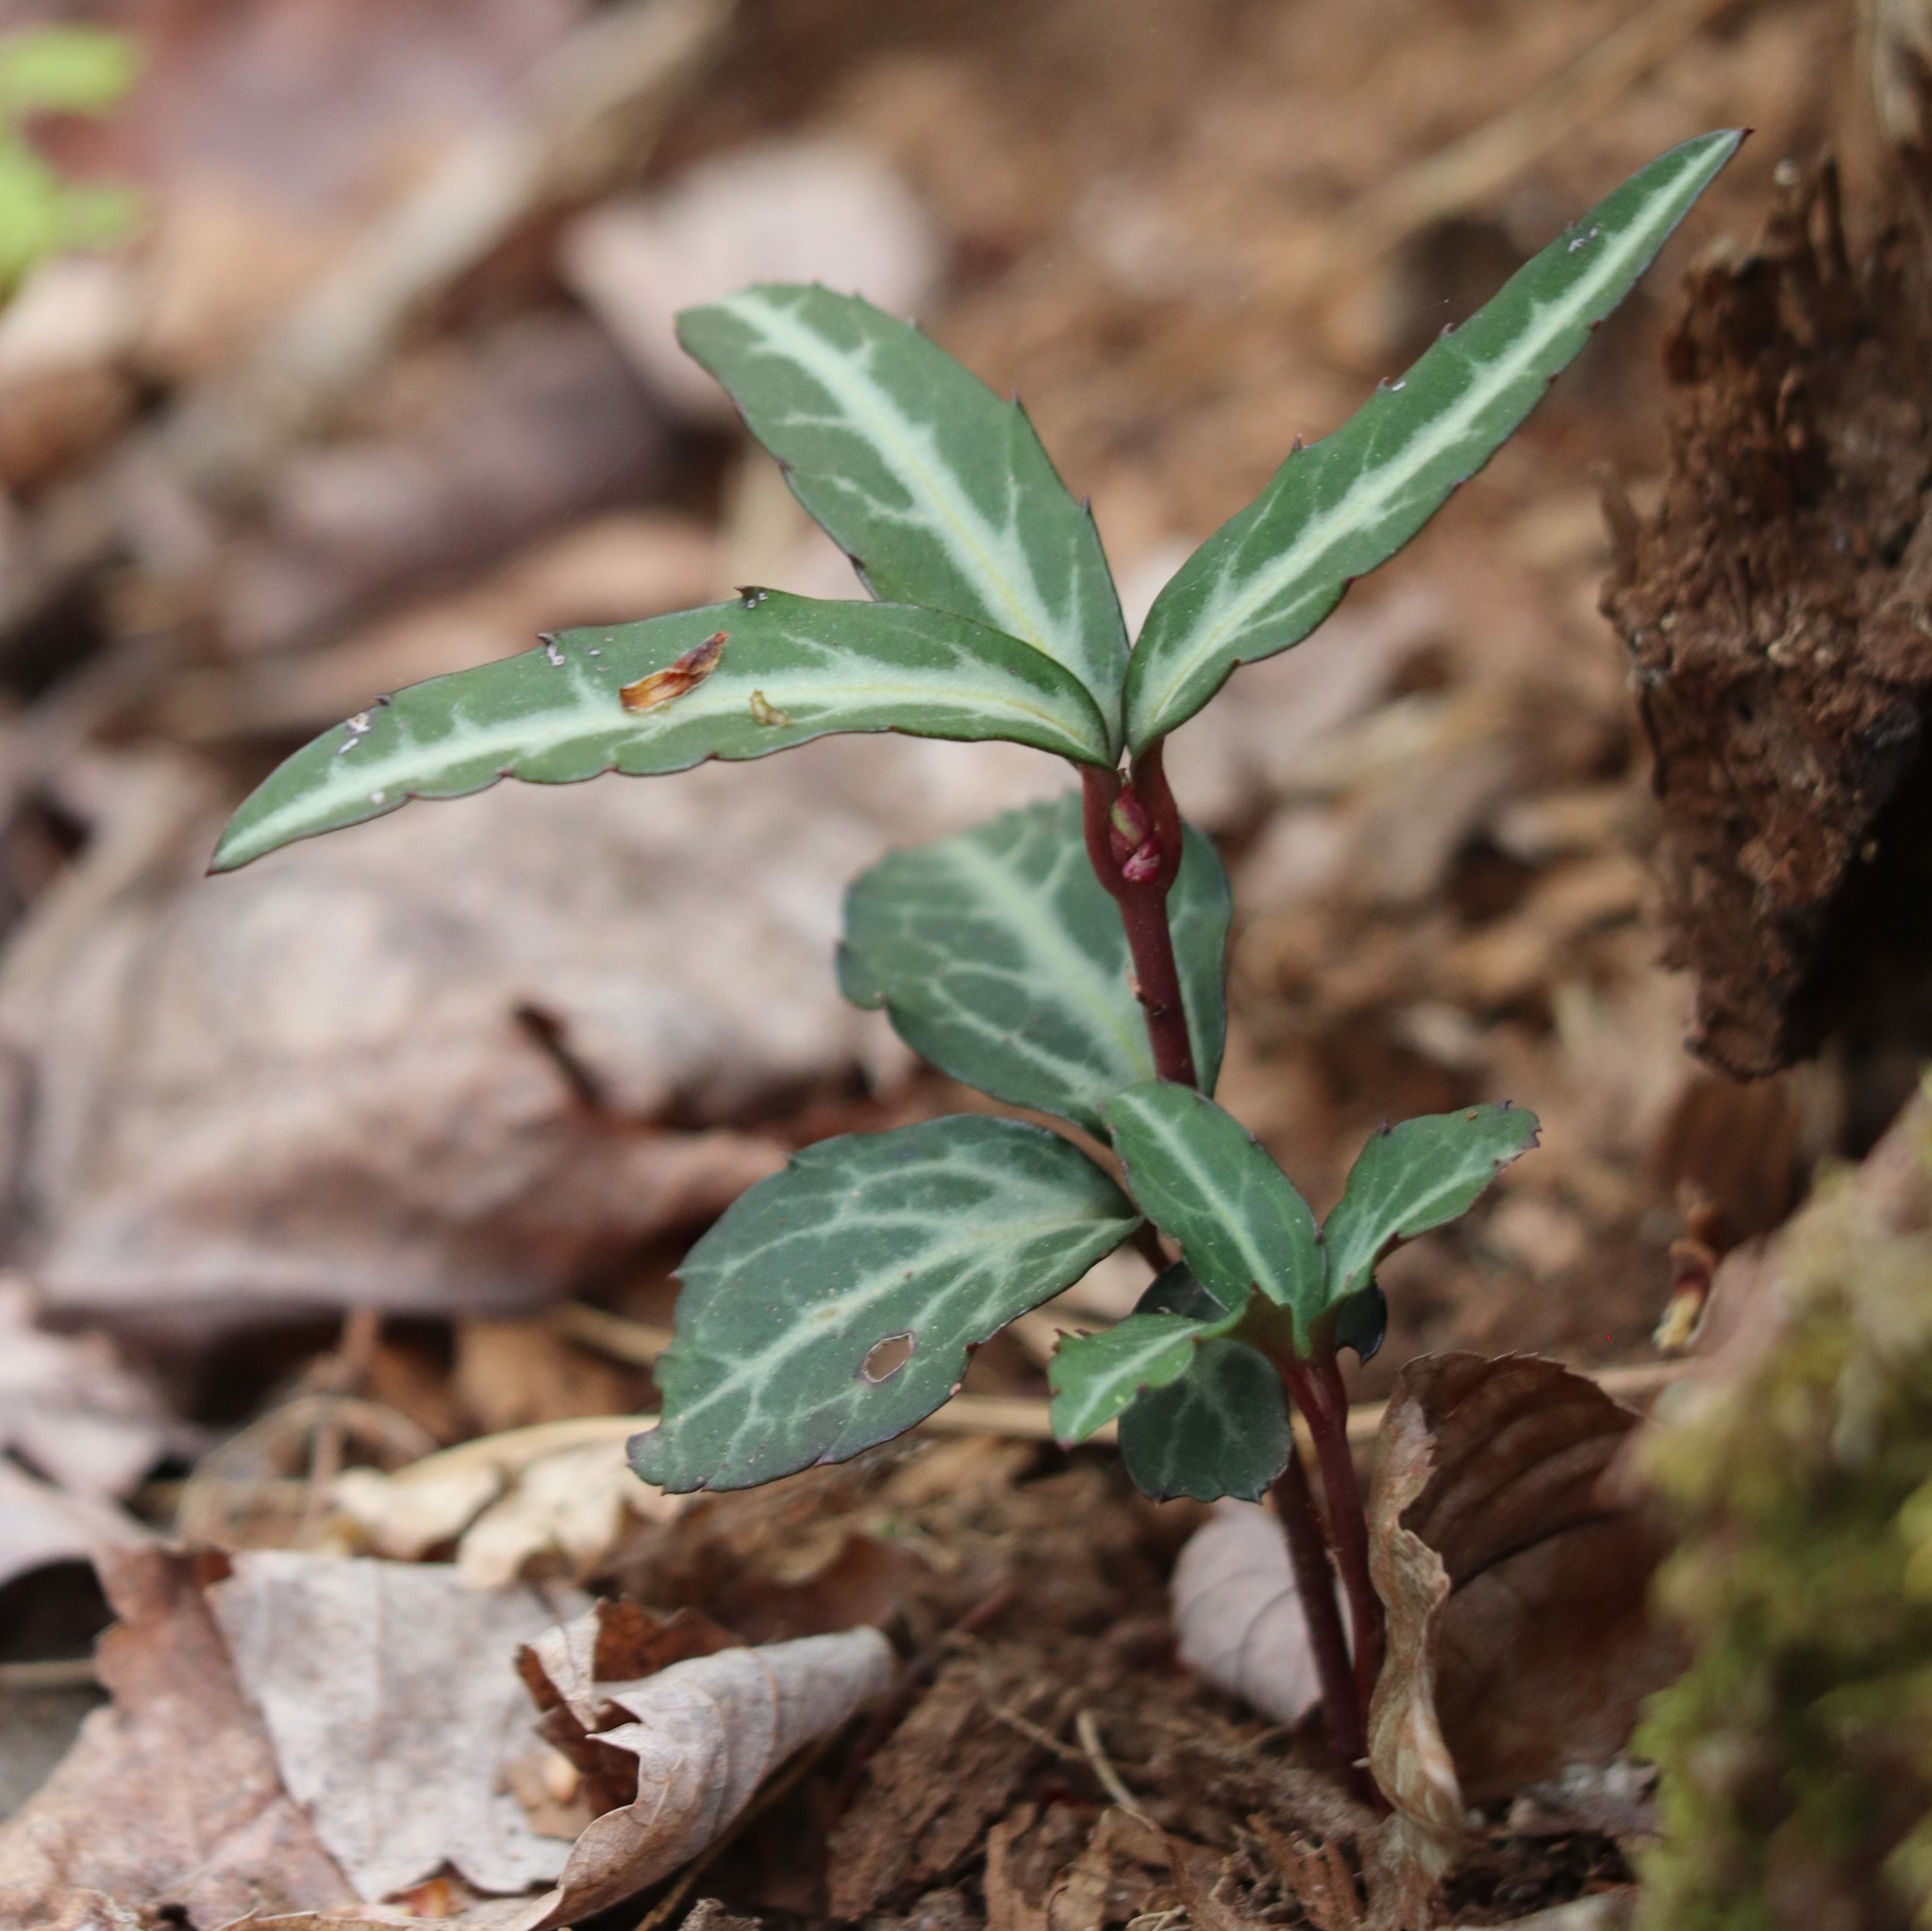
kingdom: Plantae
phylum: Tracheophyta
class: Magnoliopsida
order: Ericales
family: Ericaceae
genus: Chimaphila
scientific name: Chimaphila maculata
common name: Spotted pipsissewa
